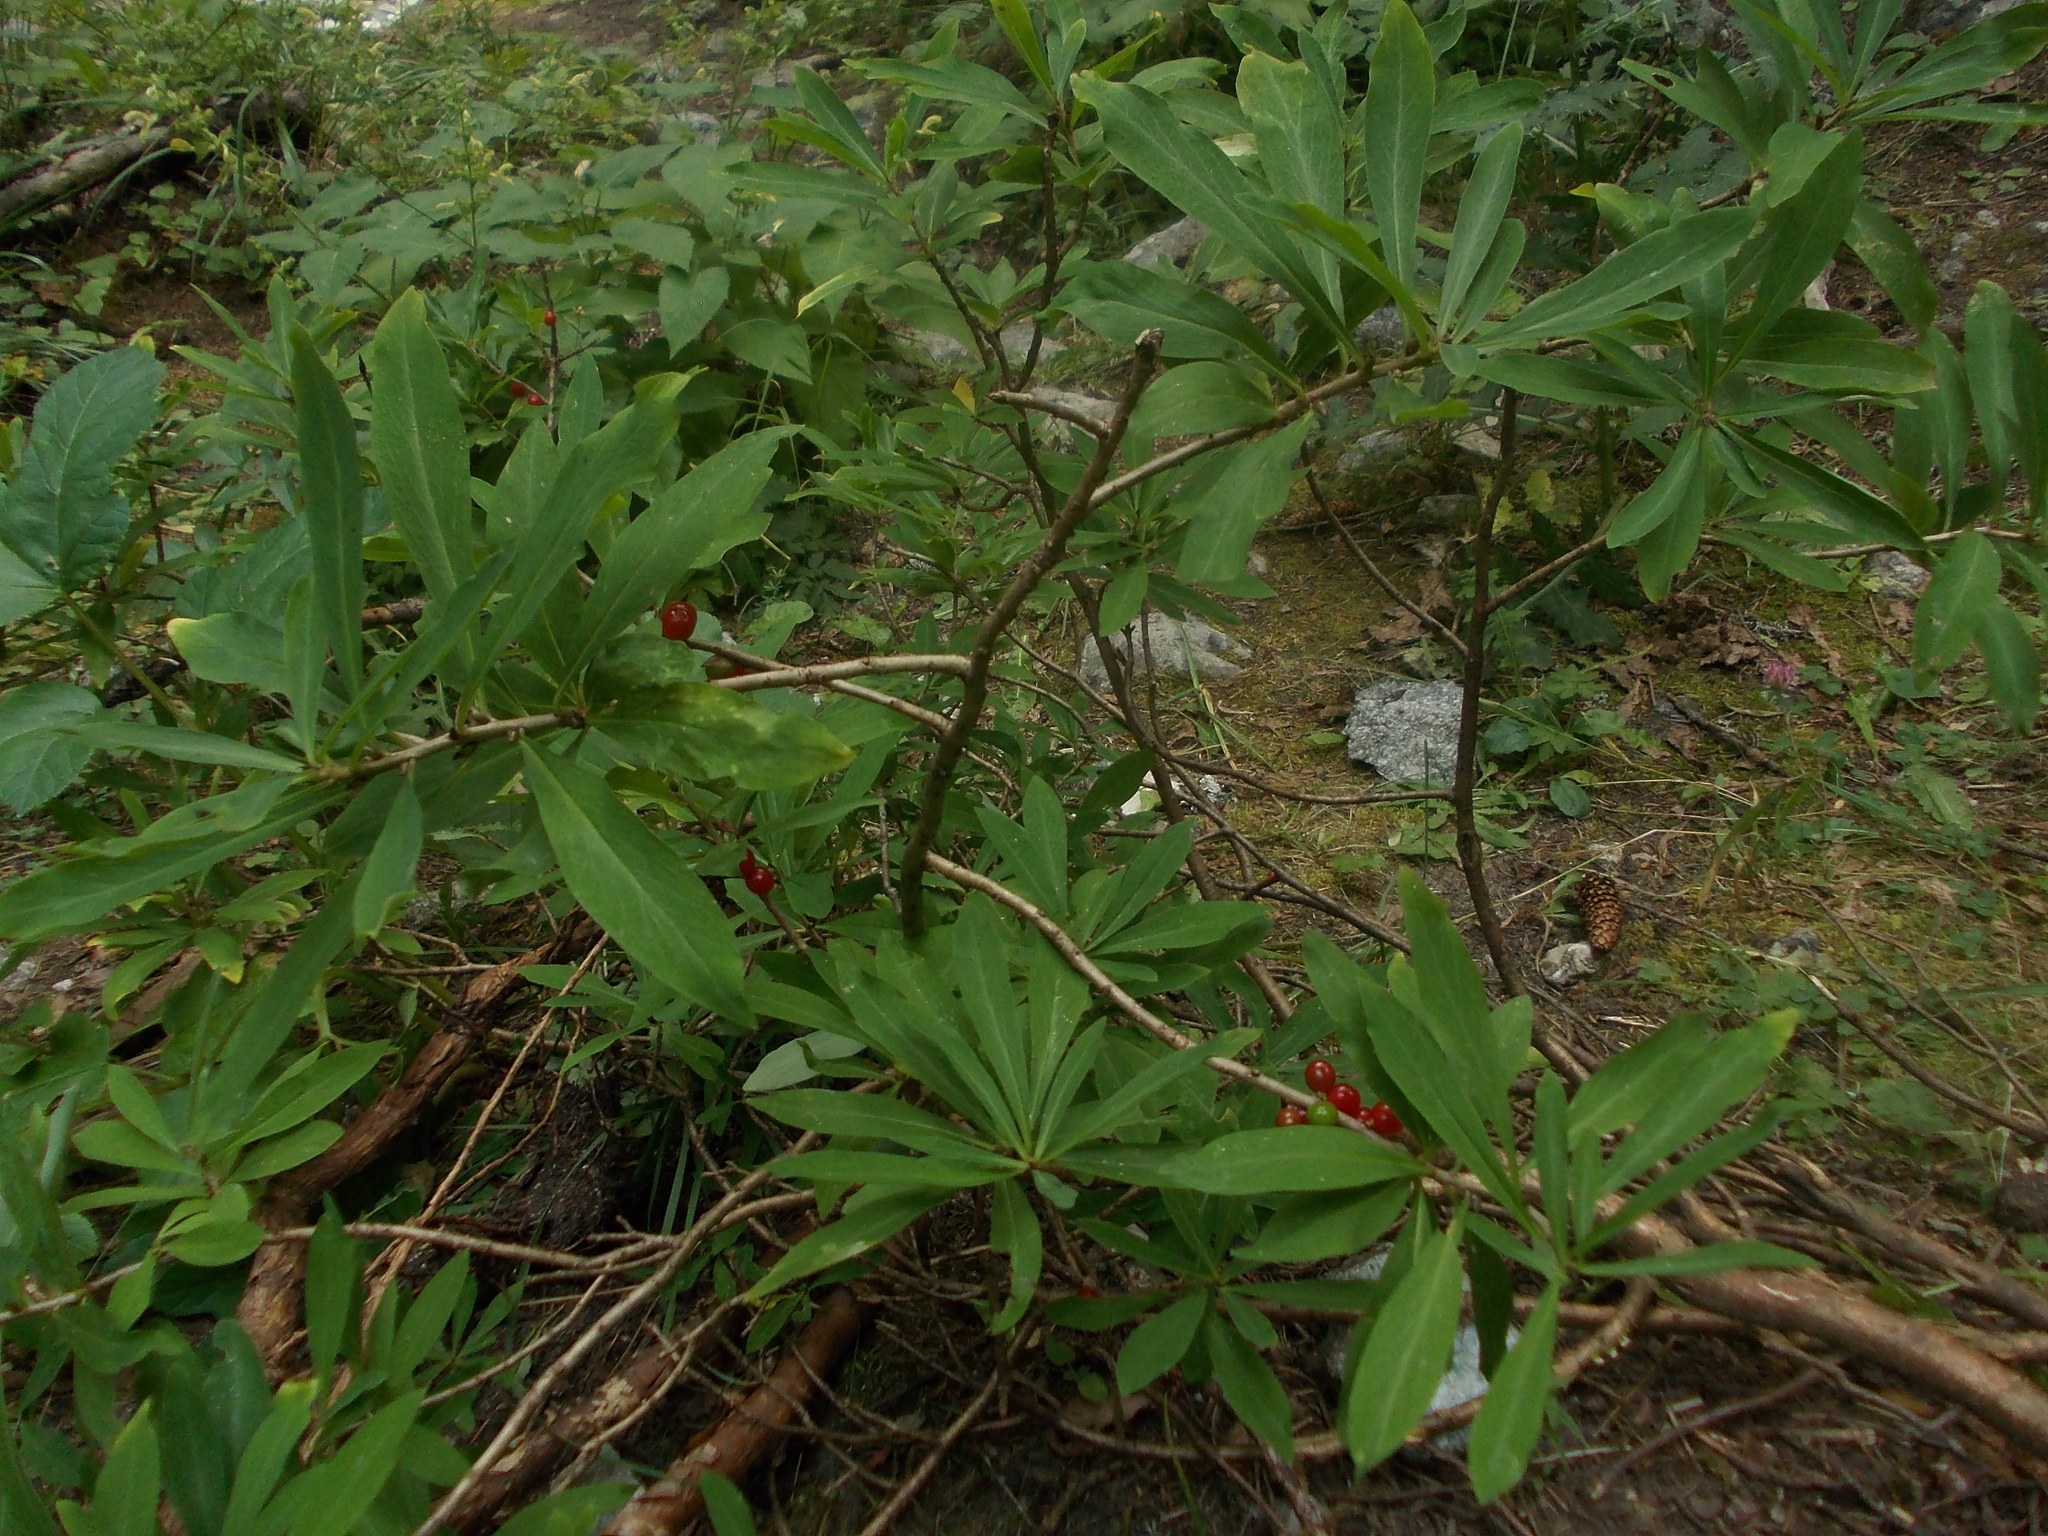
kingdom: Plantae
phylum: Tracheophyta
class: Magnoliopsida
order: Malvales
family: Thymelaeaceae
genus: Daphne
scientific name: Daphne mezereum
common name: Mezereon
